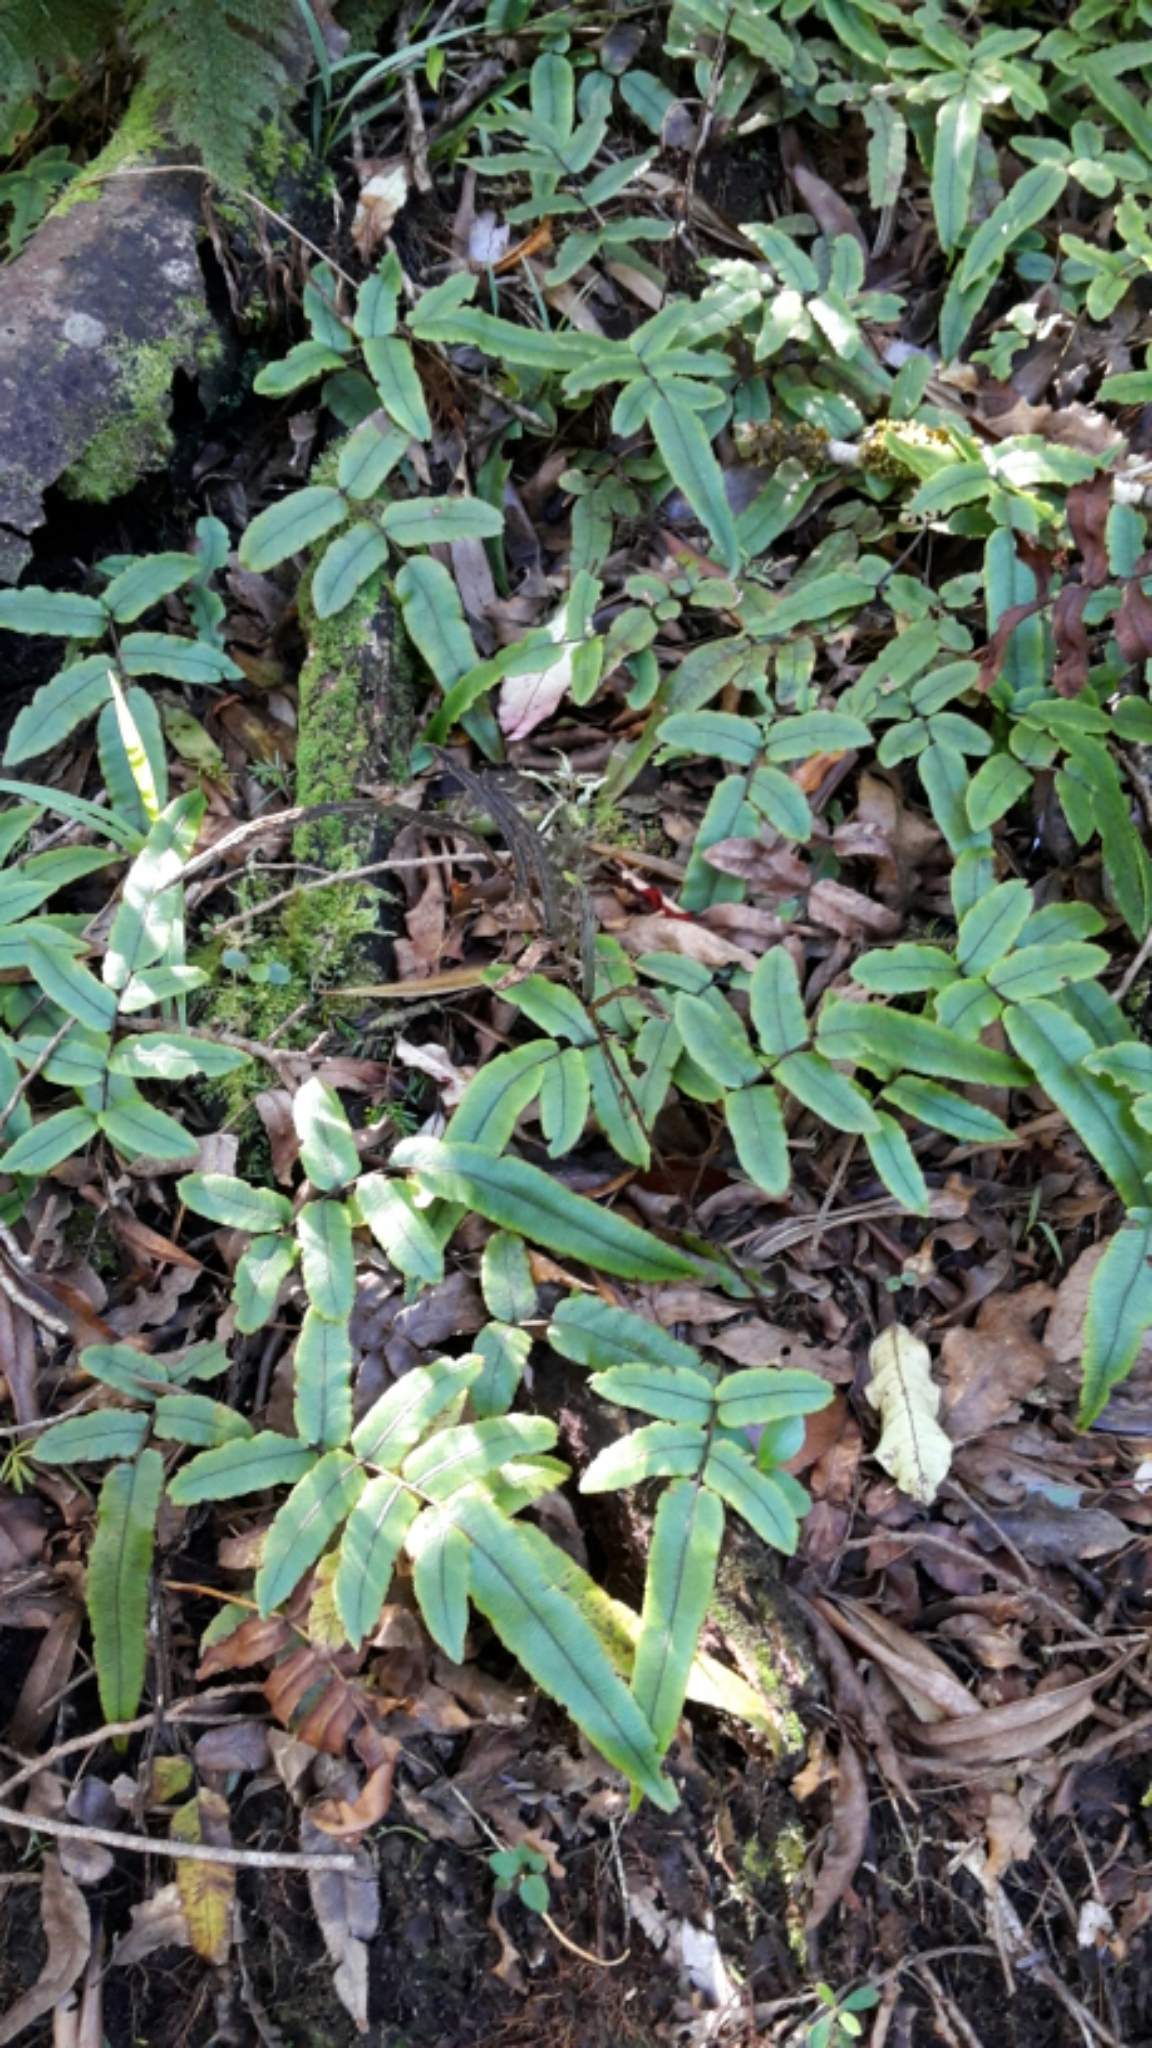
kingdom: Plantae
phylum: Tracheophyta
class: Polypodiopsida
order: Polypodiales
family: Blechnaceae
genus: Parablechnum
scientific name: Parablechnum procerum
